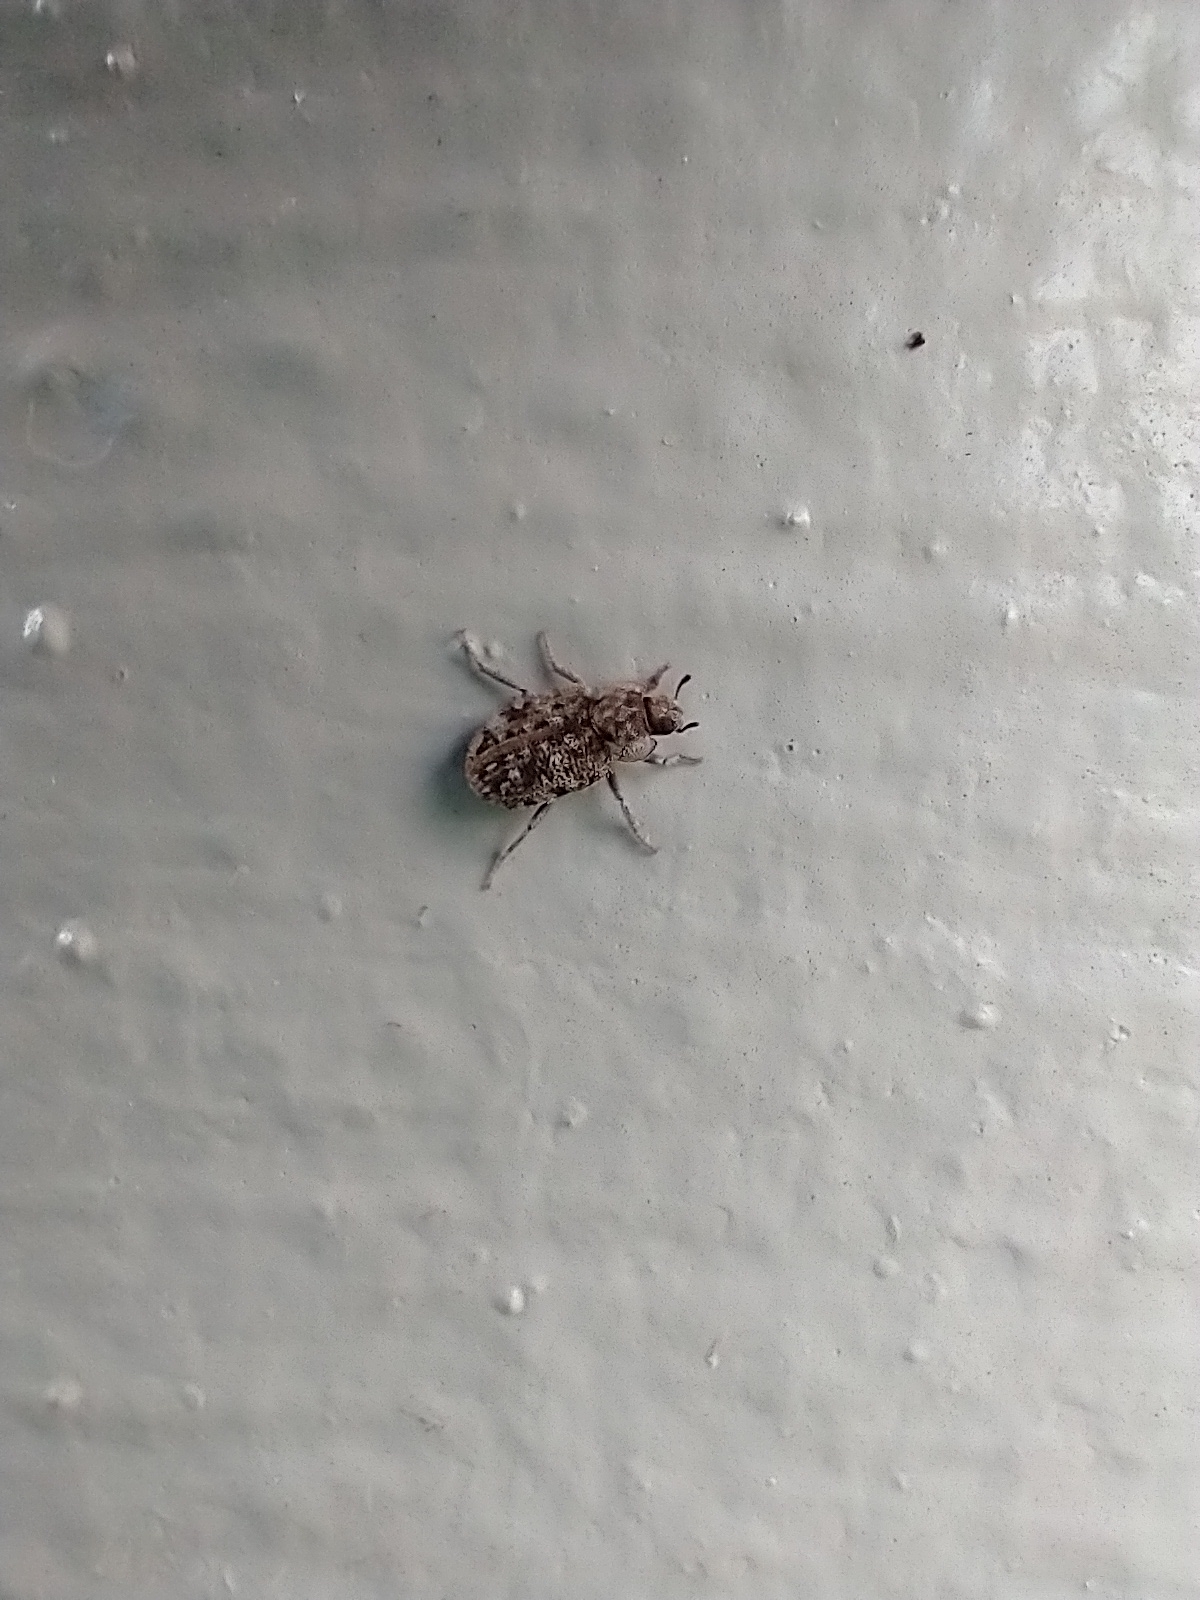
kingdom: Animalia
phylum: Arthropoda
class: Insecta
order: Coleoptera
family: Tenebrionidae
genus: Leichenum
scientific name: Leichenum canaliculatum
